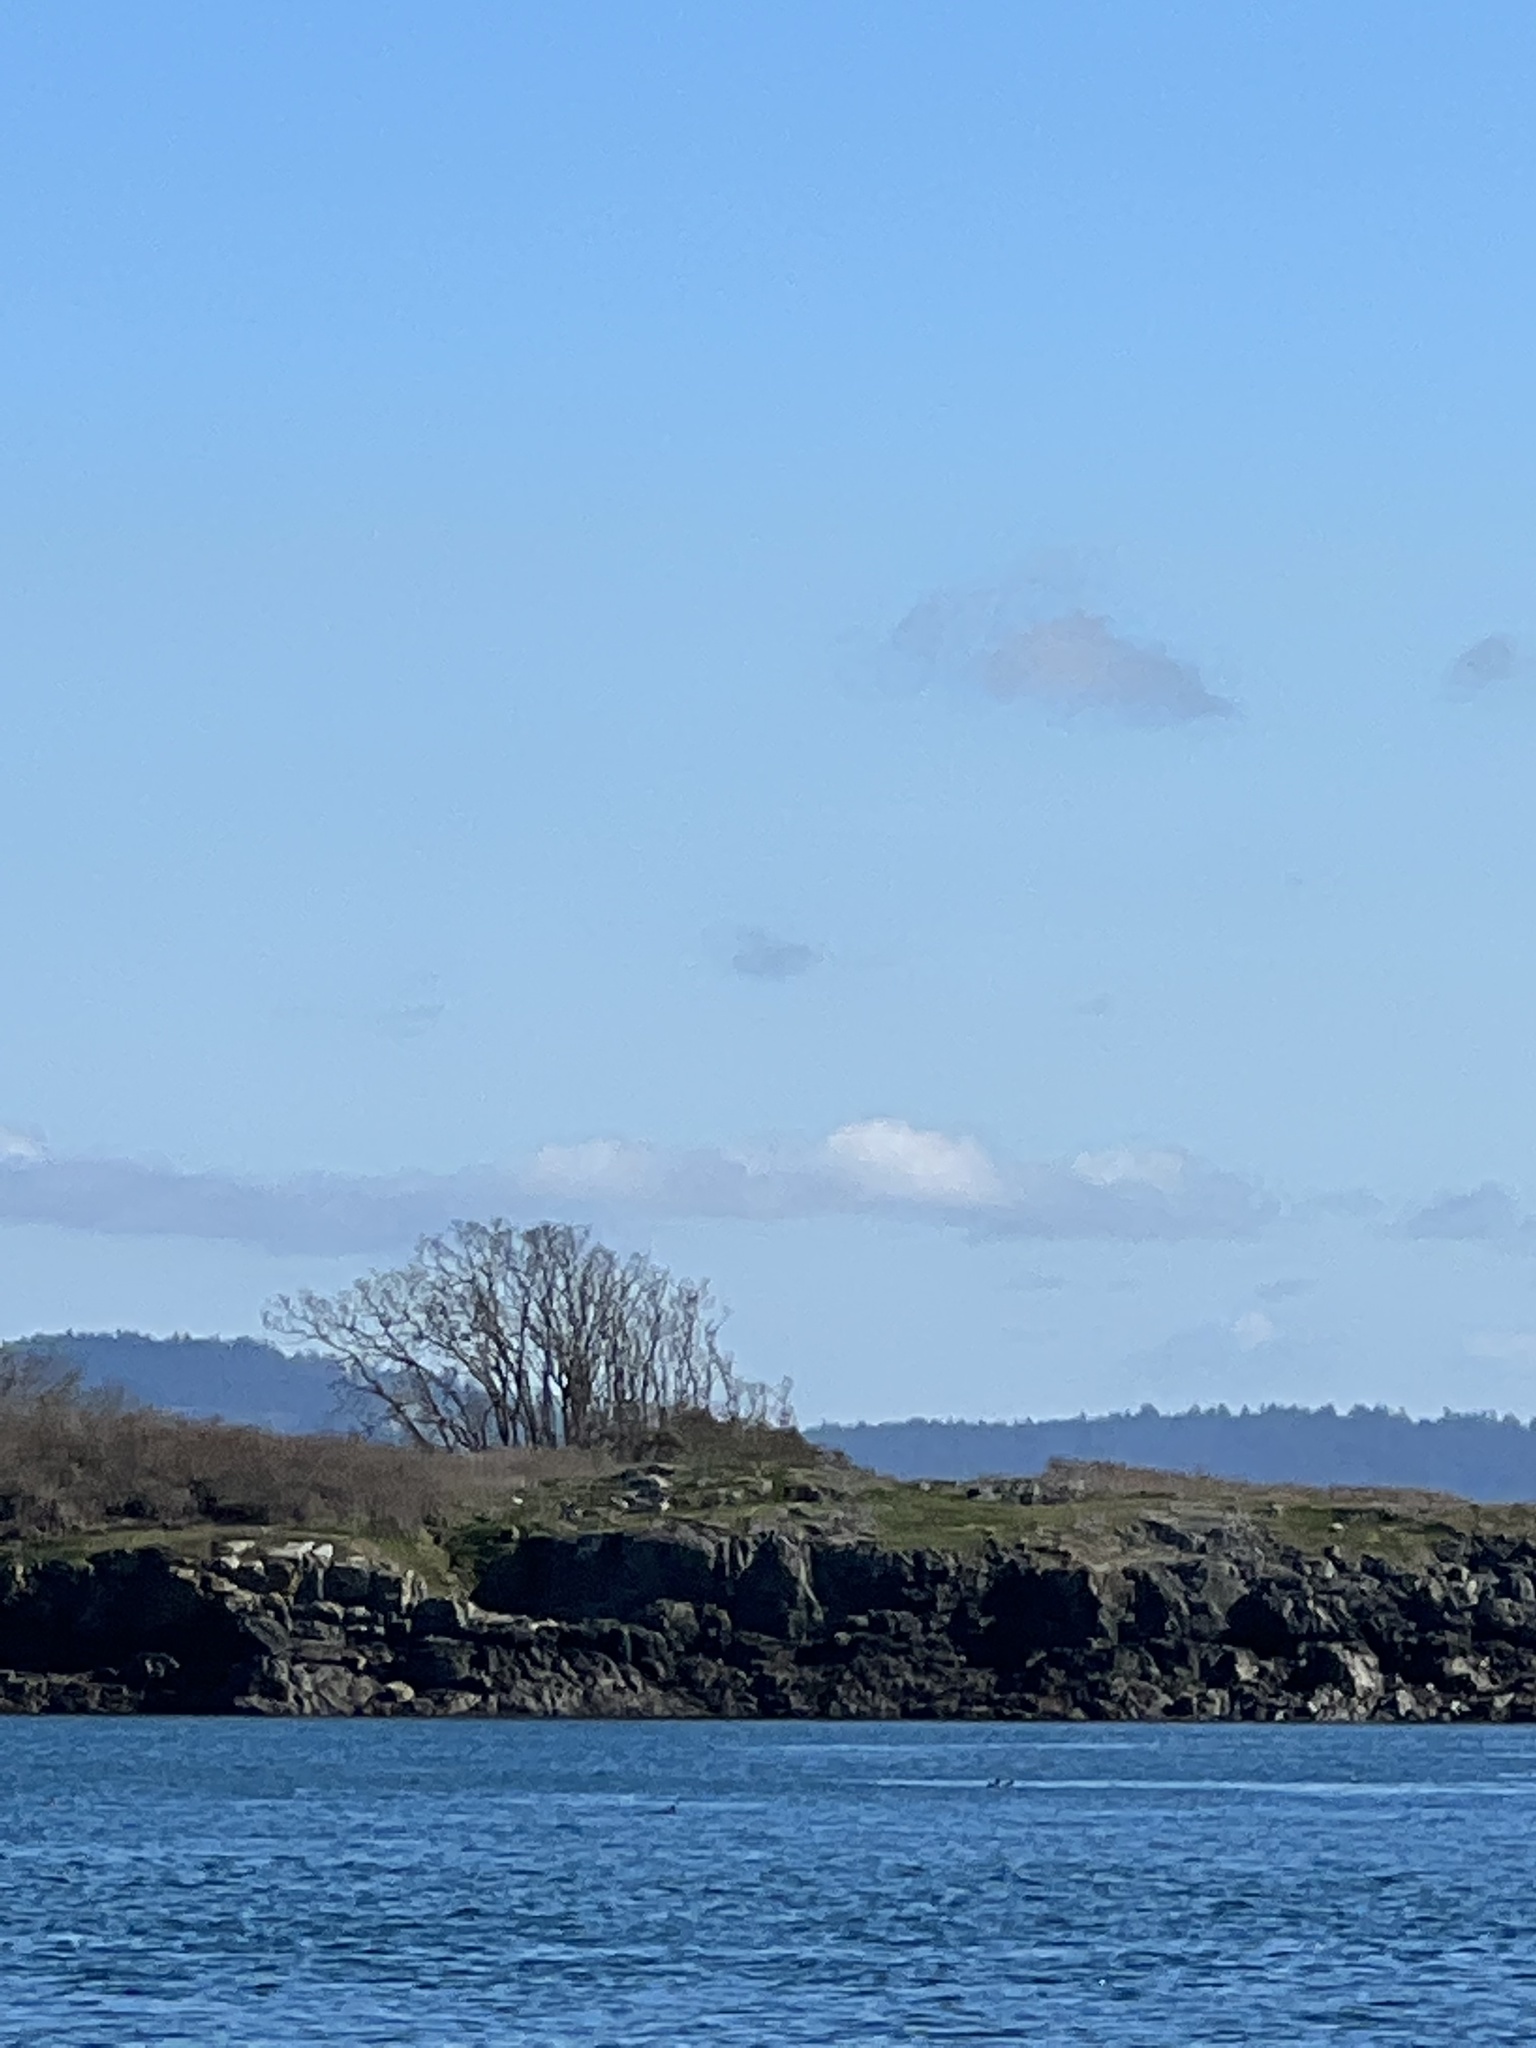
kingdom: Plantae
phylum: Tracheophyta
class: Magnoliopsida
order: Fagales
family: Fagaceae
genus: Quercus
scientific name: Quercus garryana
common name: Garry oak
